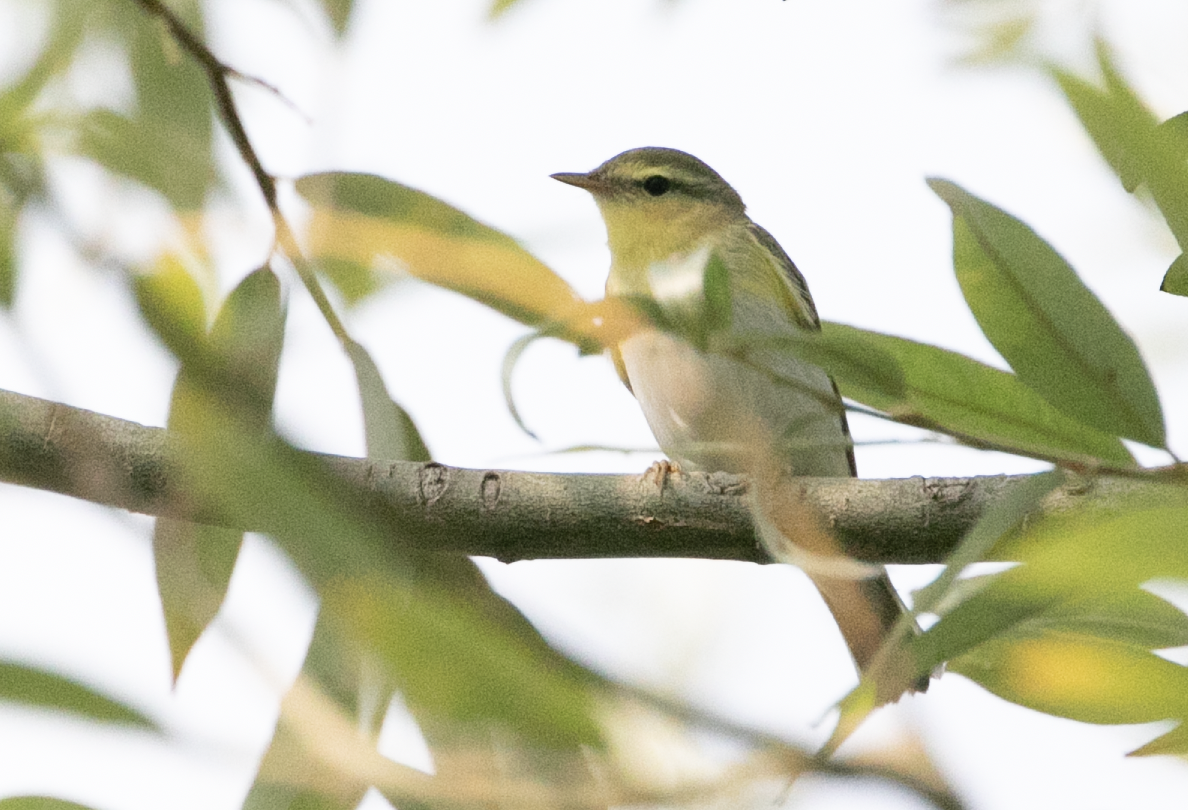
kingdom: Animalia
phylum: Chordata
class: Aves
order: Passeriformes
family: Phylloscopidae
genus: Phylloscopus
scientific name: Phylloscopus sibillatrix
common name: Wood warbler
